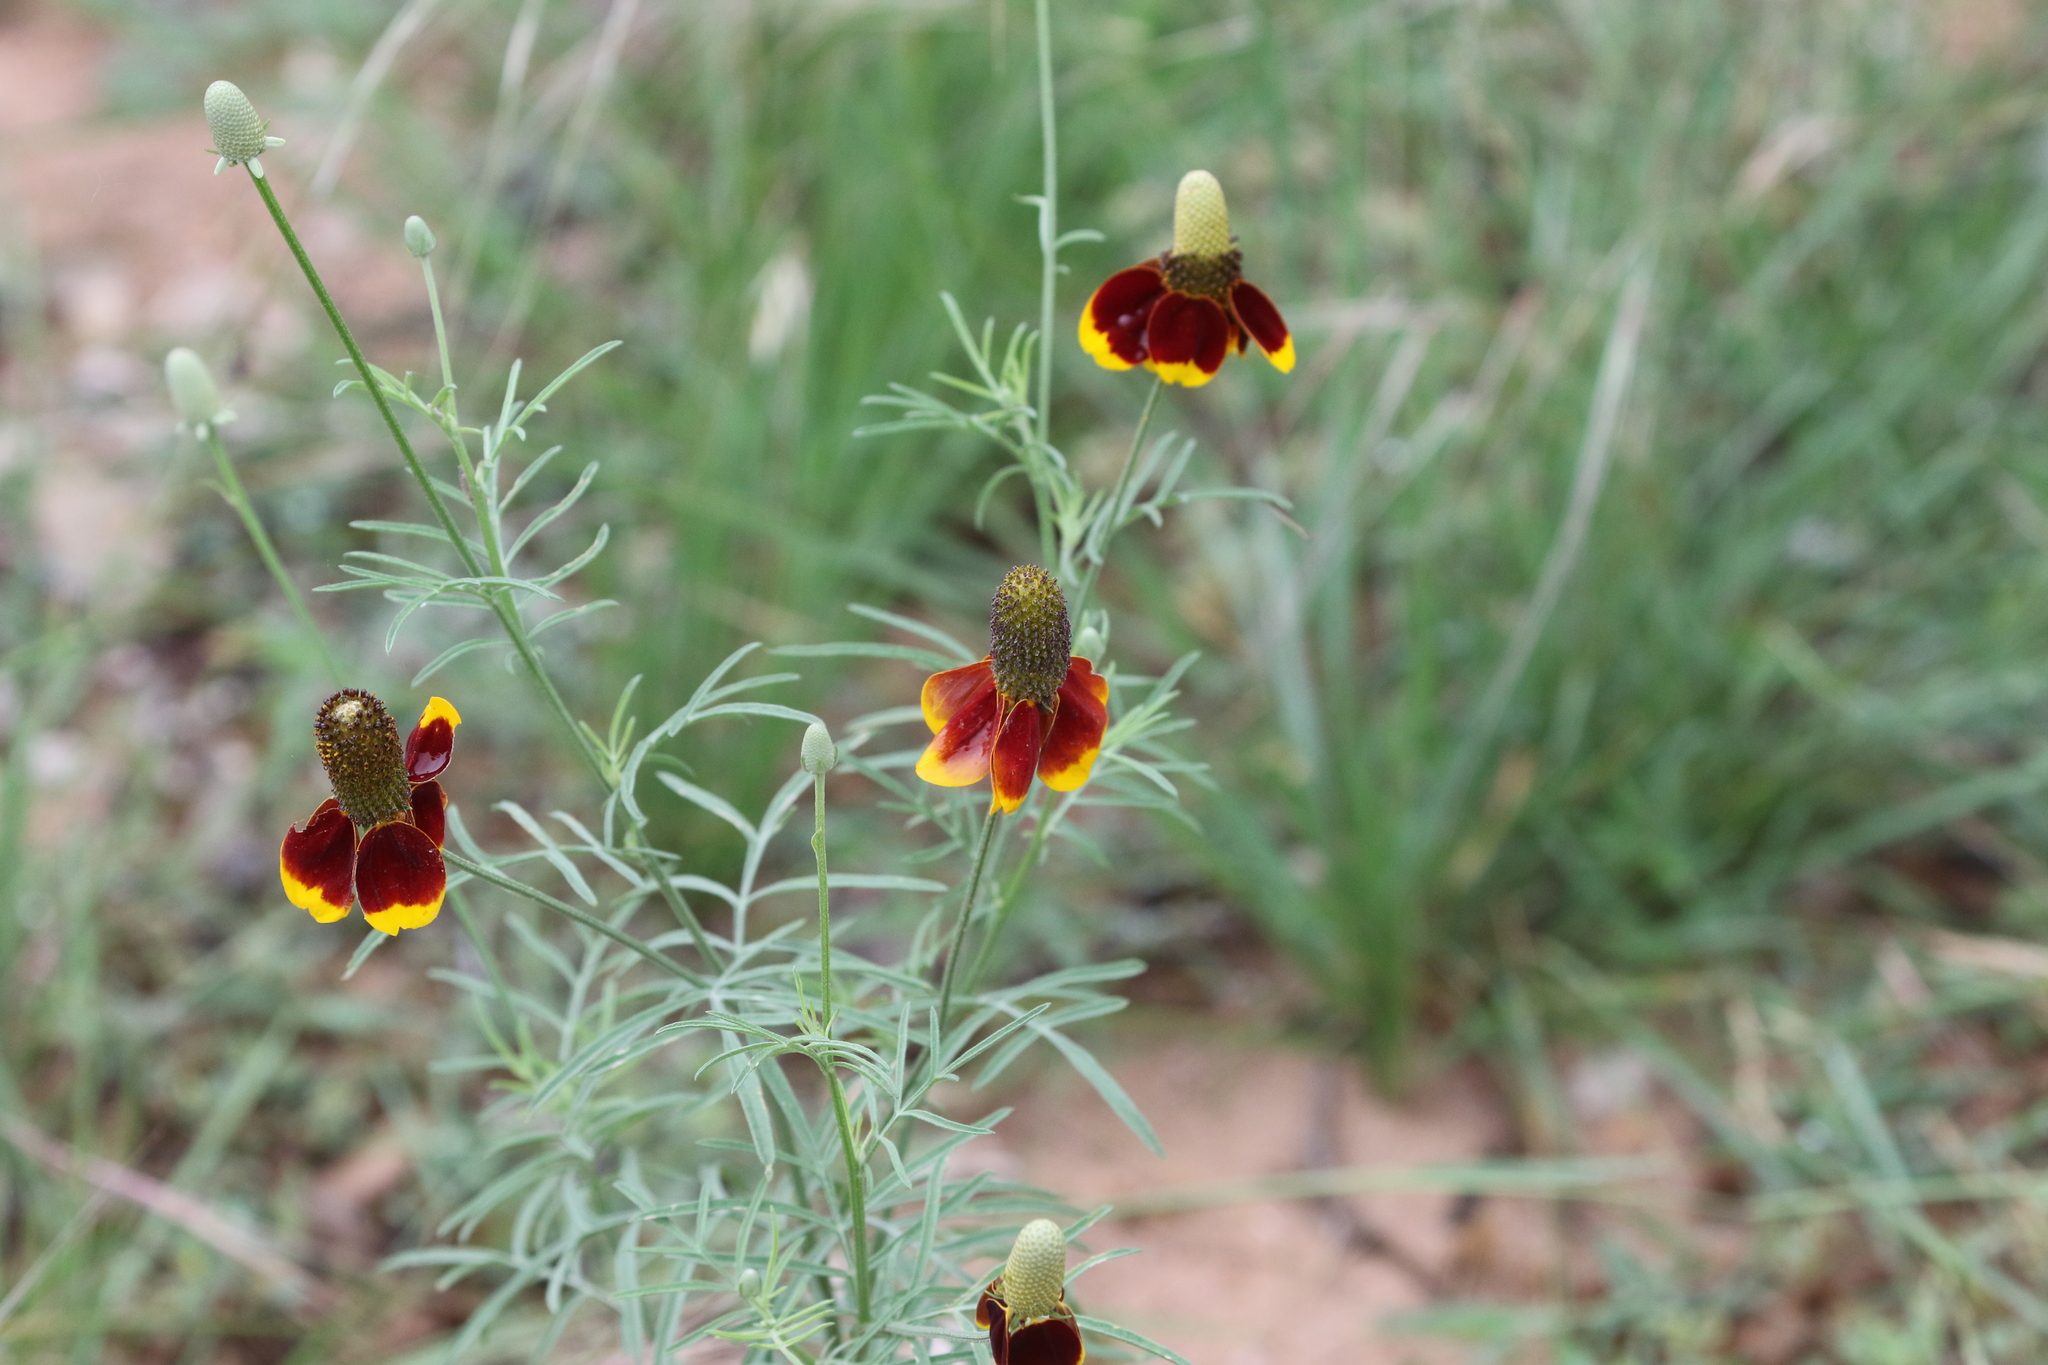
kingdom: Plantae
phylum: Tracheophyta
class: Magnoliopsida
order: Asterales
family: Asteraceae
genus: Ratibida
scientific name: Ratibida columnifera
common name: Prairie coneflower
